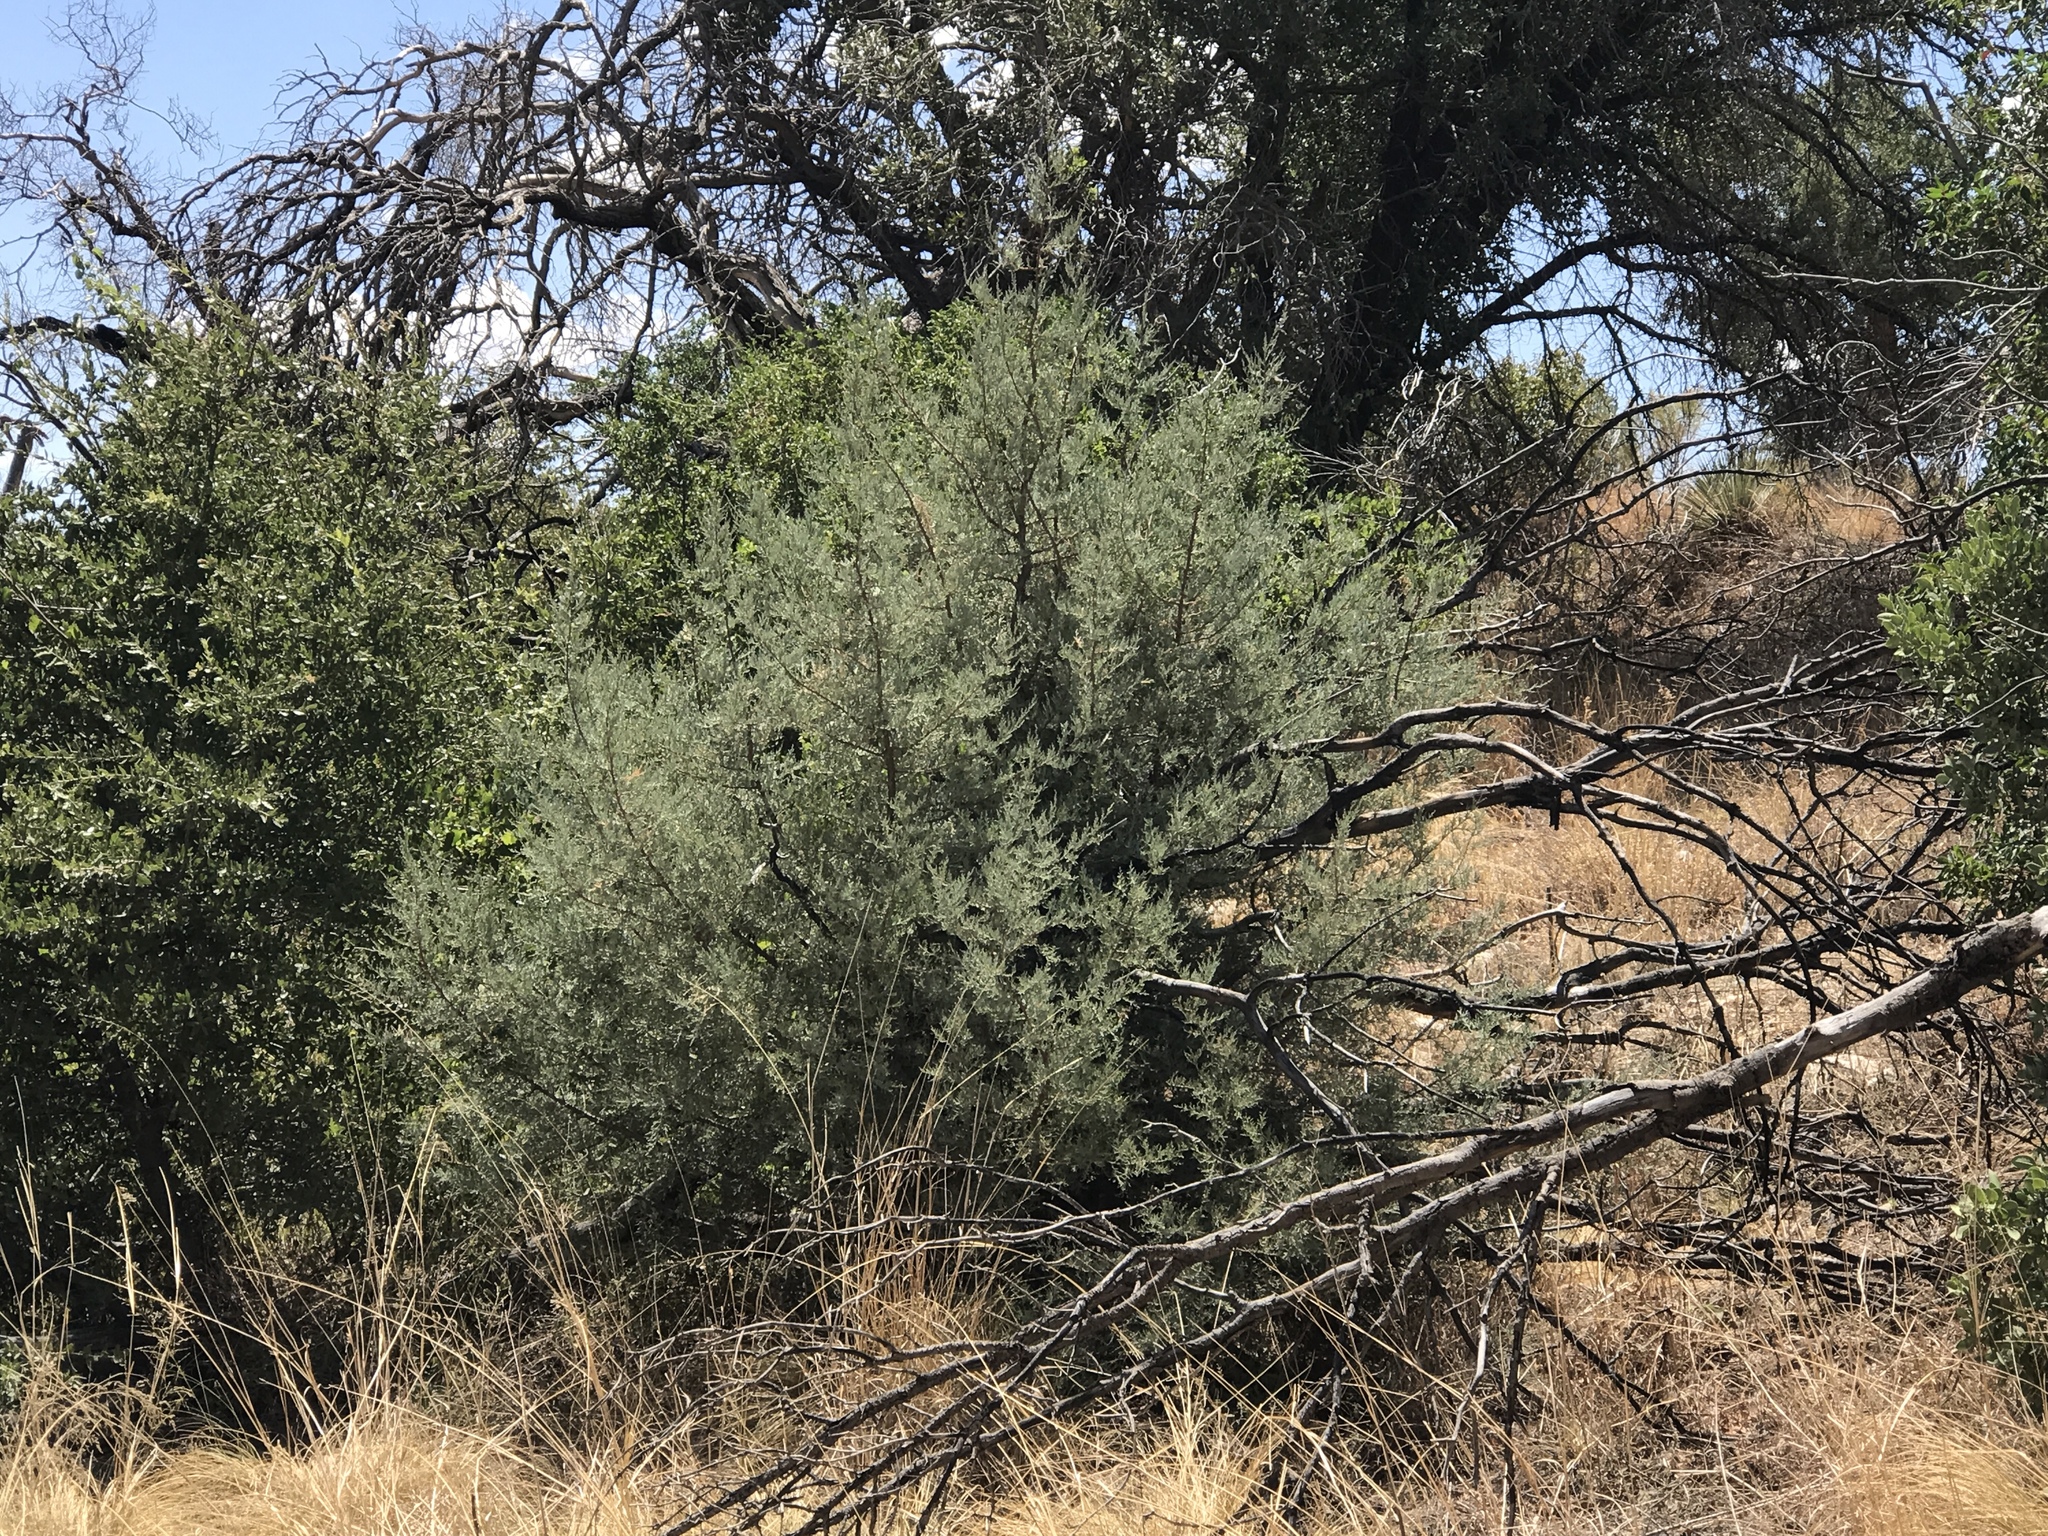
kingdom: Plantae
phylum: Tracheophyta
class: Magnoliopsida
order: Caryophyllales
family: Amaranthaceae
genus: Atriplex
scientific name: Atriplex canescens
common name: Four-wing saltbush
